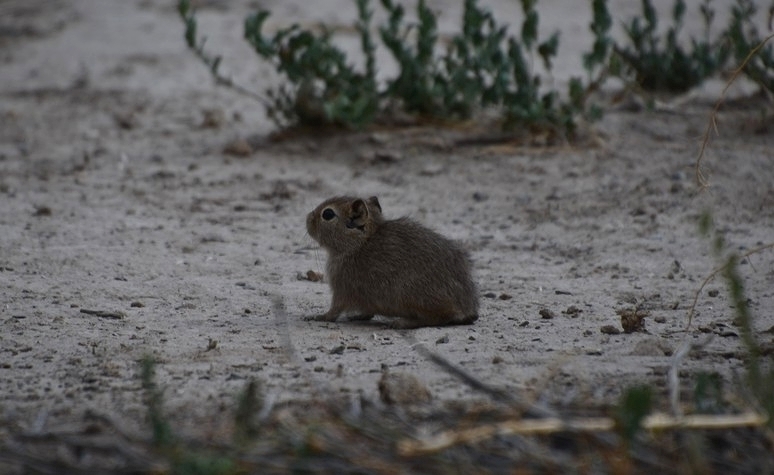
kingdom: Animalia
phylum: Chordata
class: Mammalia
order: Rodentia
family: Caviidae
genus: Microcavia
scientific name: Microcavia australis
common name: Southern mountain cavy
